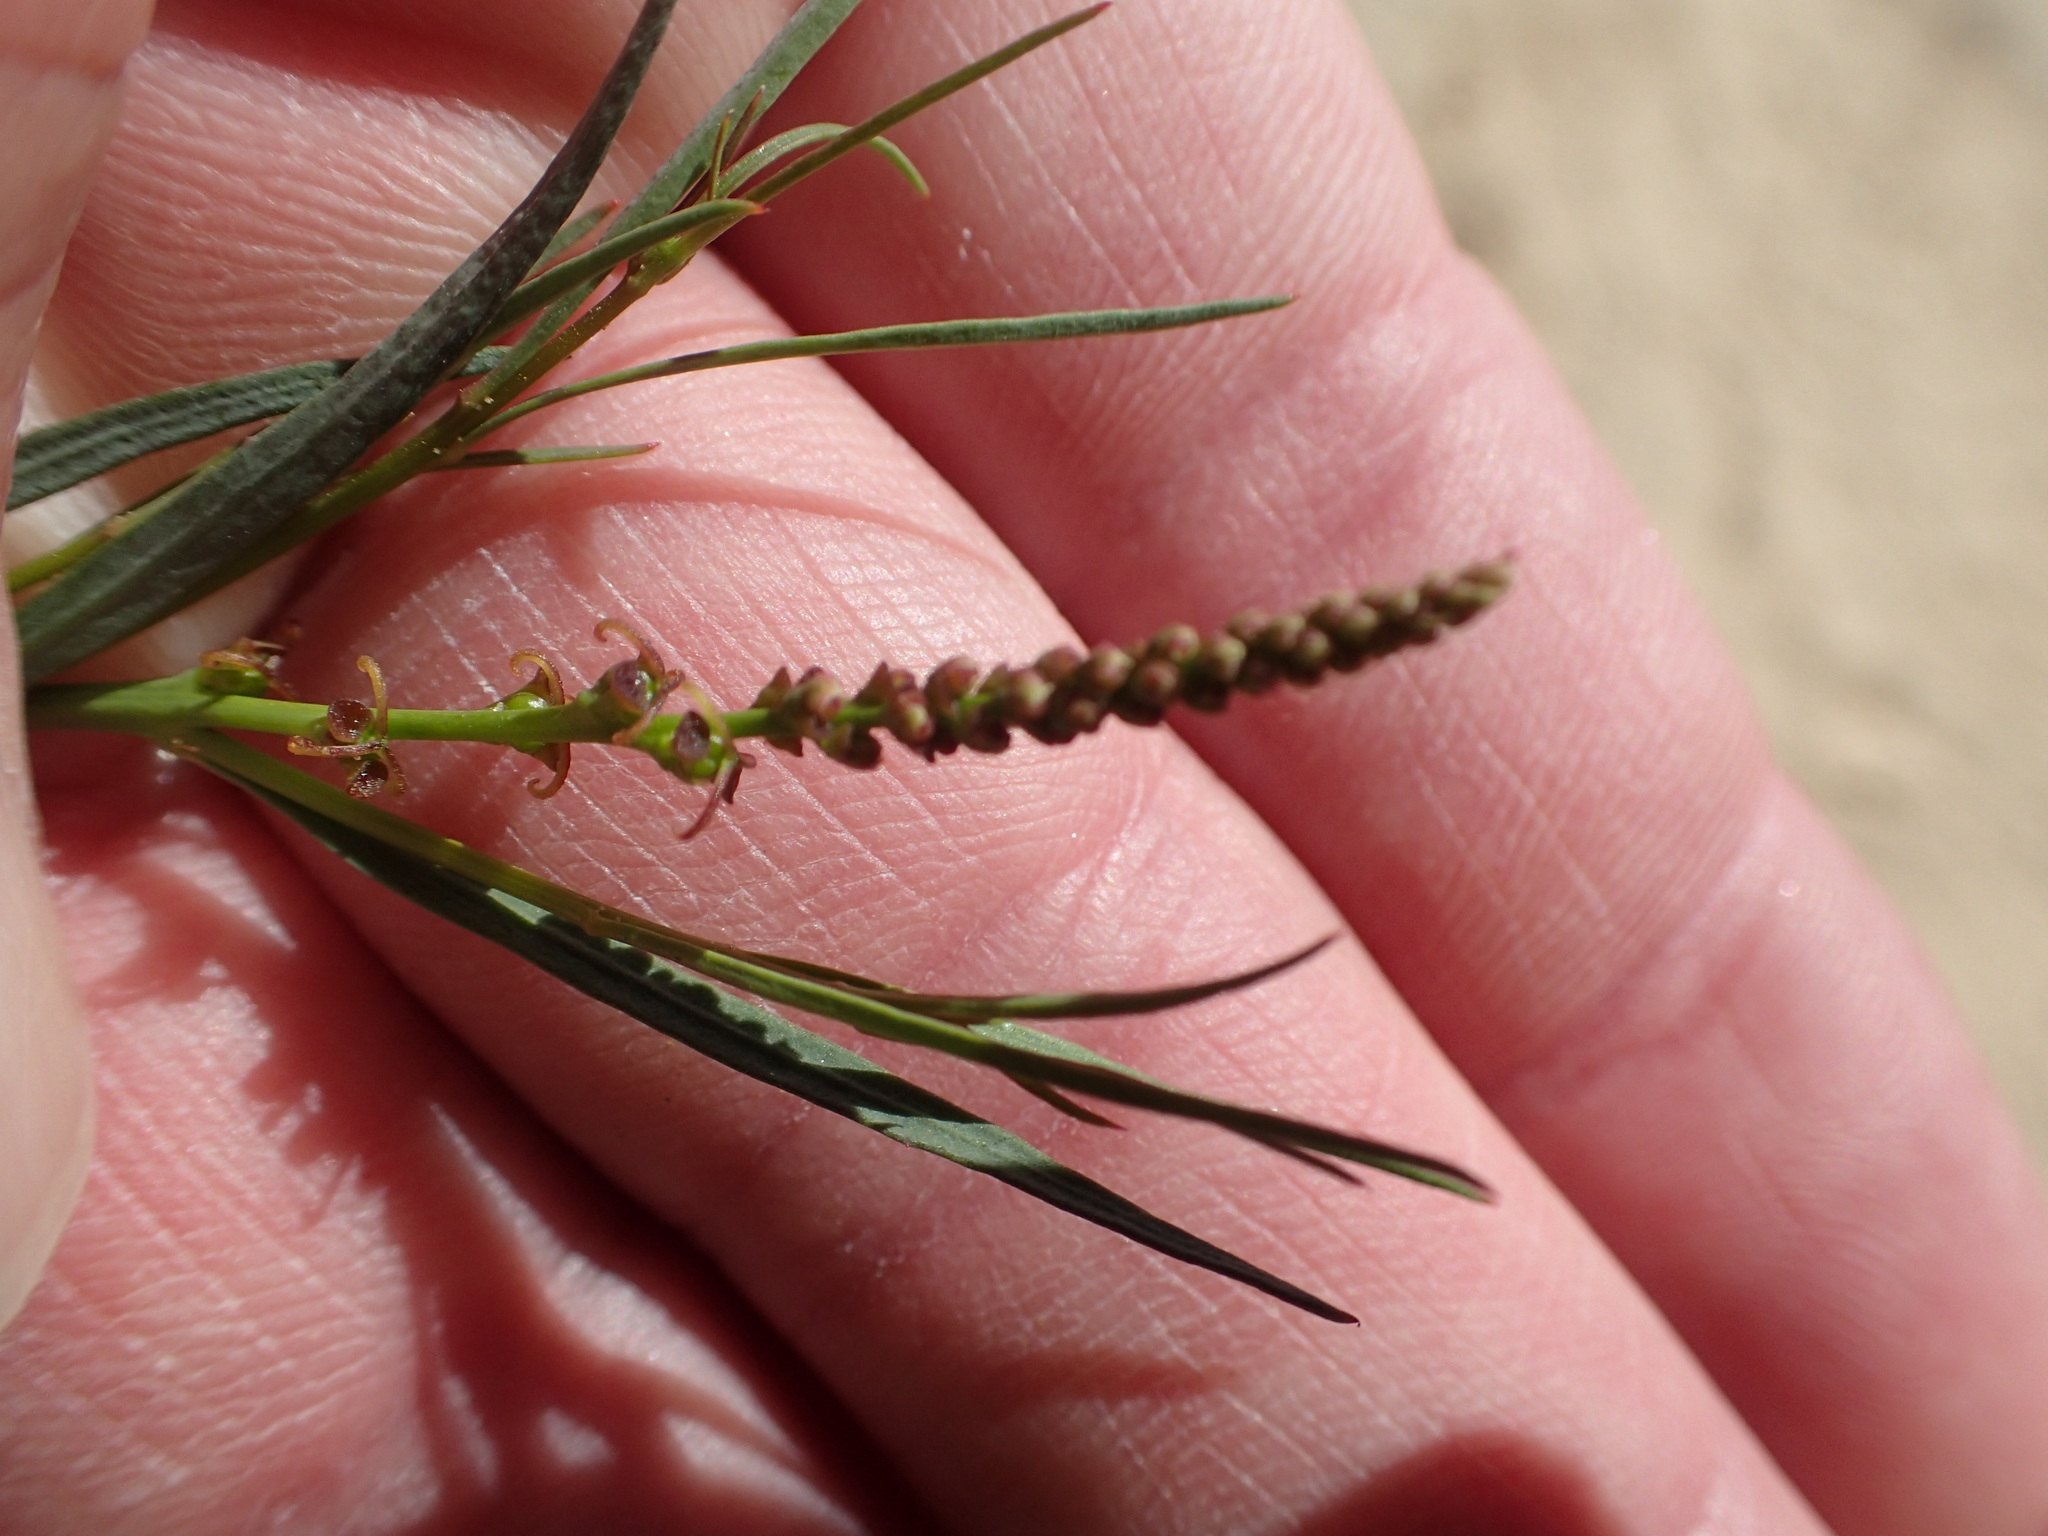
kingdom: Plantae
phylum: Tracheophyta
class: Magnoliopsida
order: Malpighiales
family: Euphorbiaceae
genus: Stillingia
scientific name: Stillingia linearifolia
